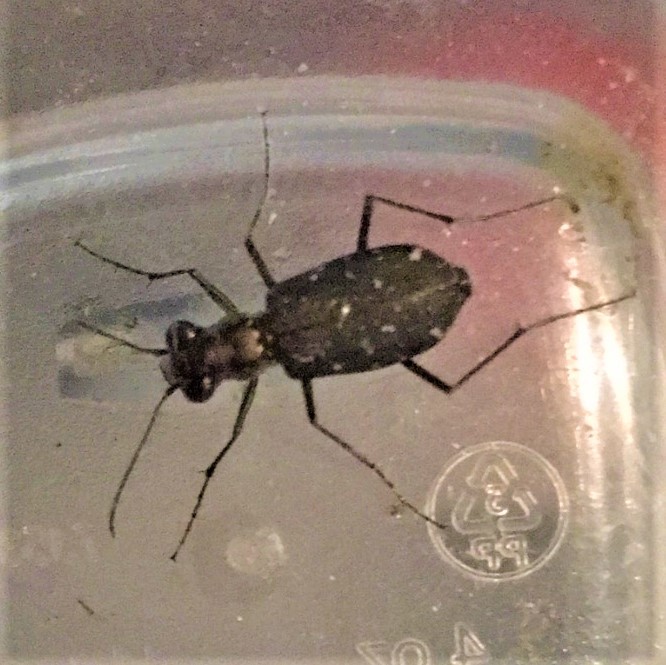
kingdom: Animalia
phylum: Arthropoda
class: Insecta
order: Coleoptera
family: Carabidae
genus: Cicindela
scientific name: Cicindela punctulata
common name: Punctured tiger beetle
